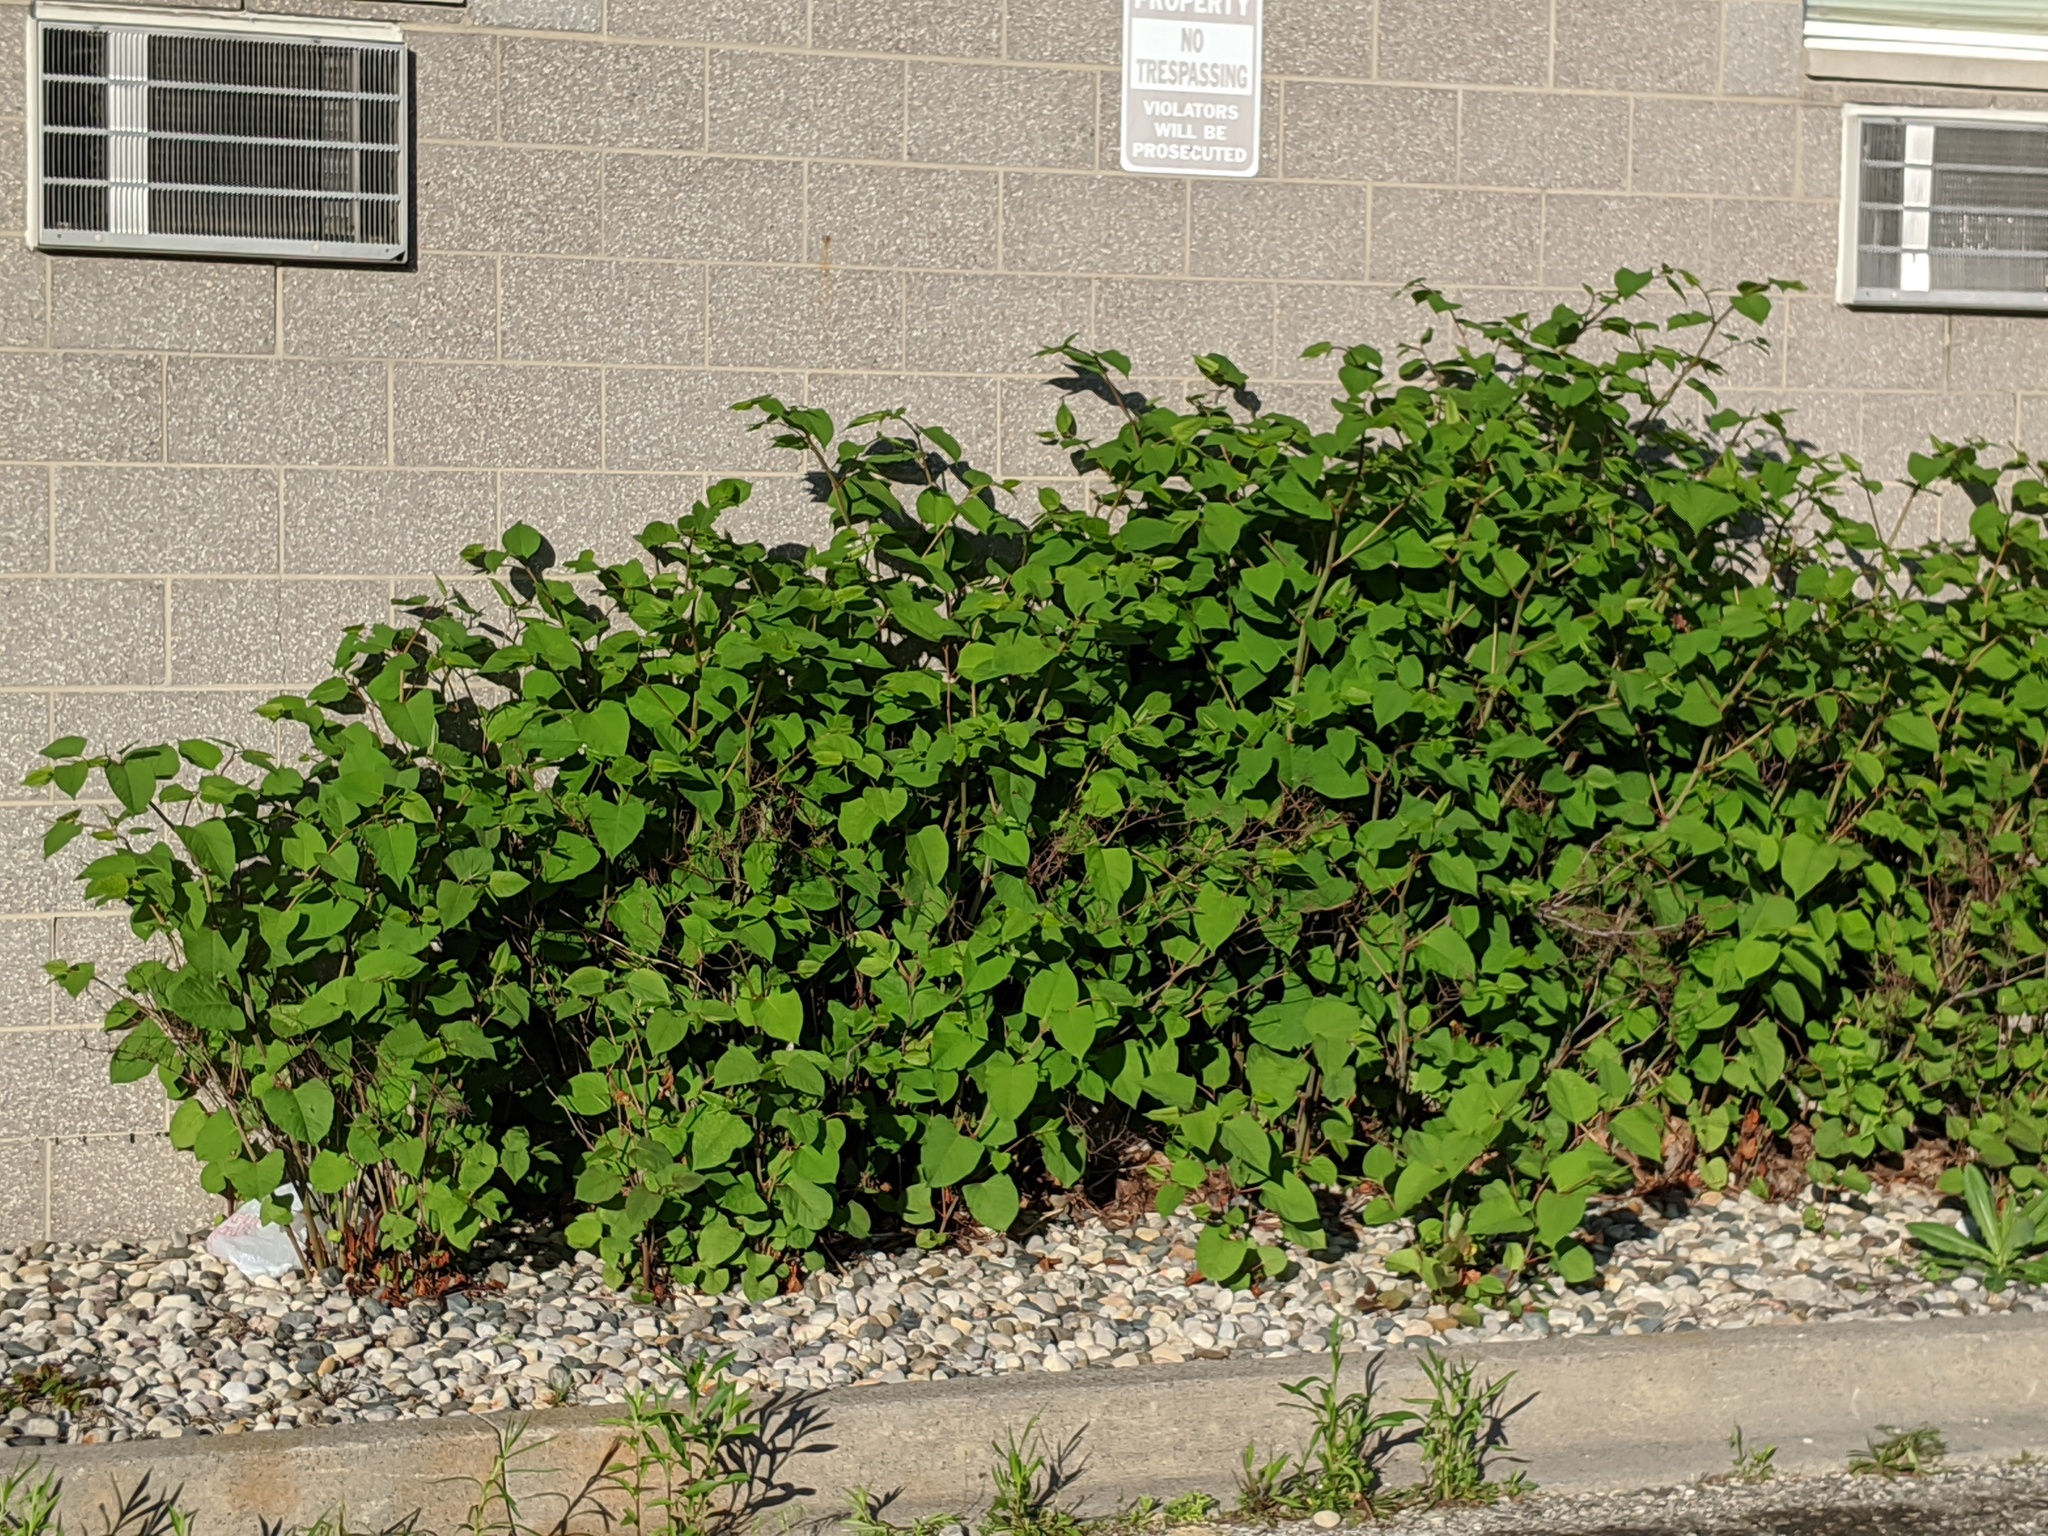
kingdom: Plantae
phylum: Tracheophyta
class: Magnoliopsida
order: Caryophyllales
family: Polygonaceae
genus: Reynoutria
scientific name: Reynoutria japonica
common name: Japanese knotweed
